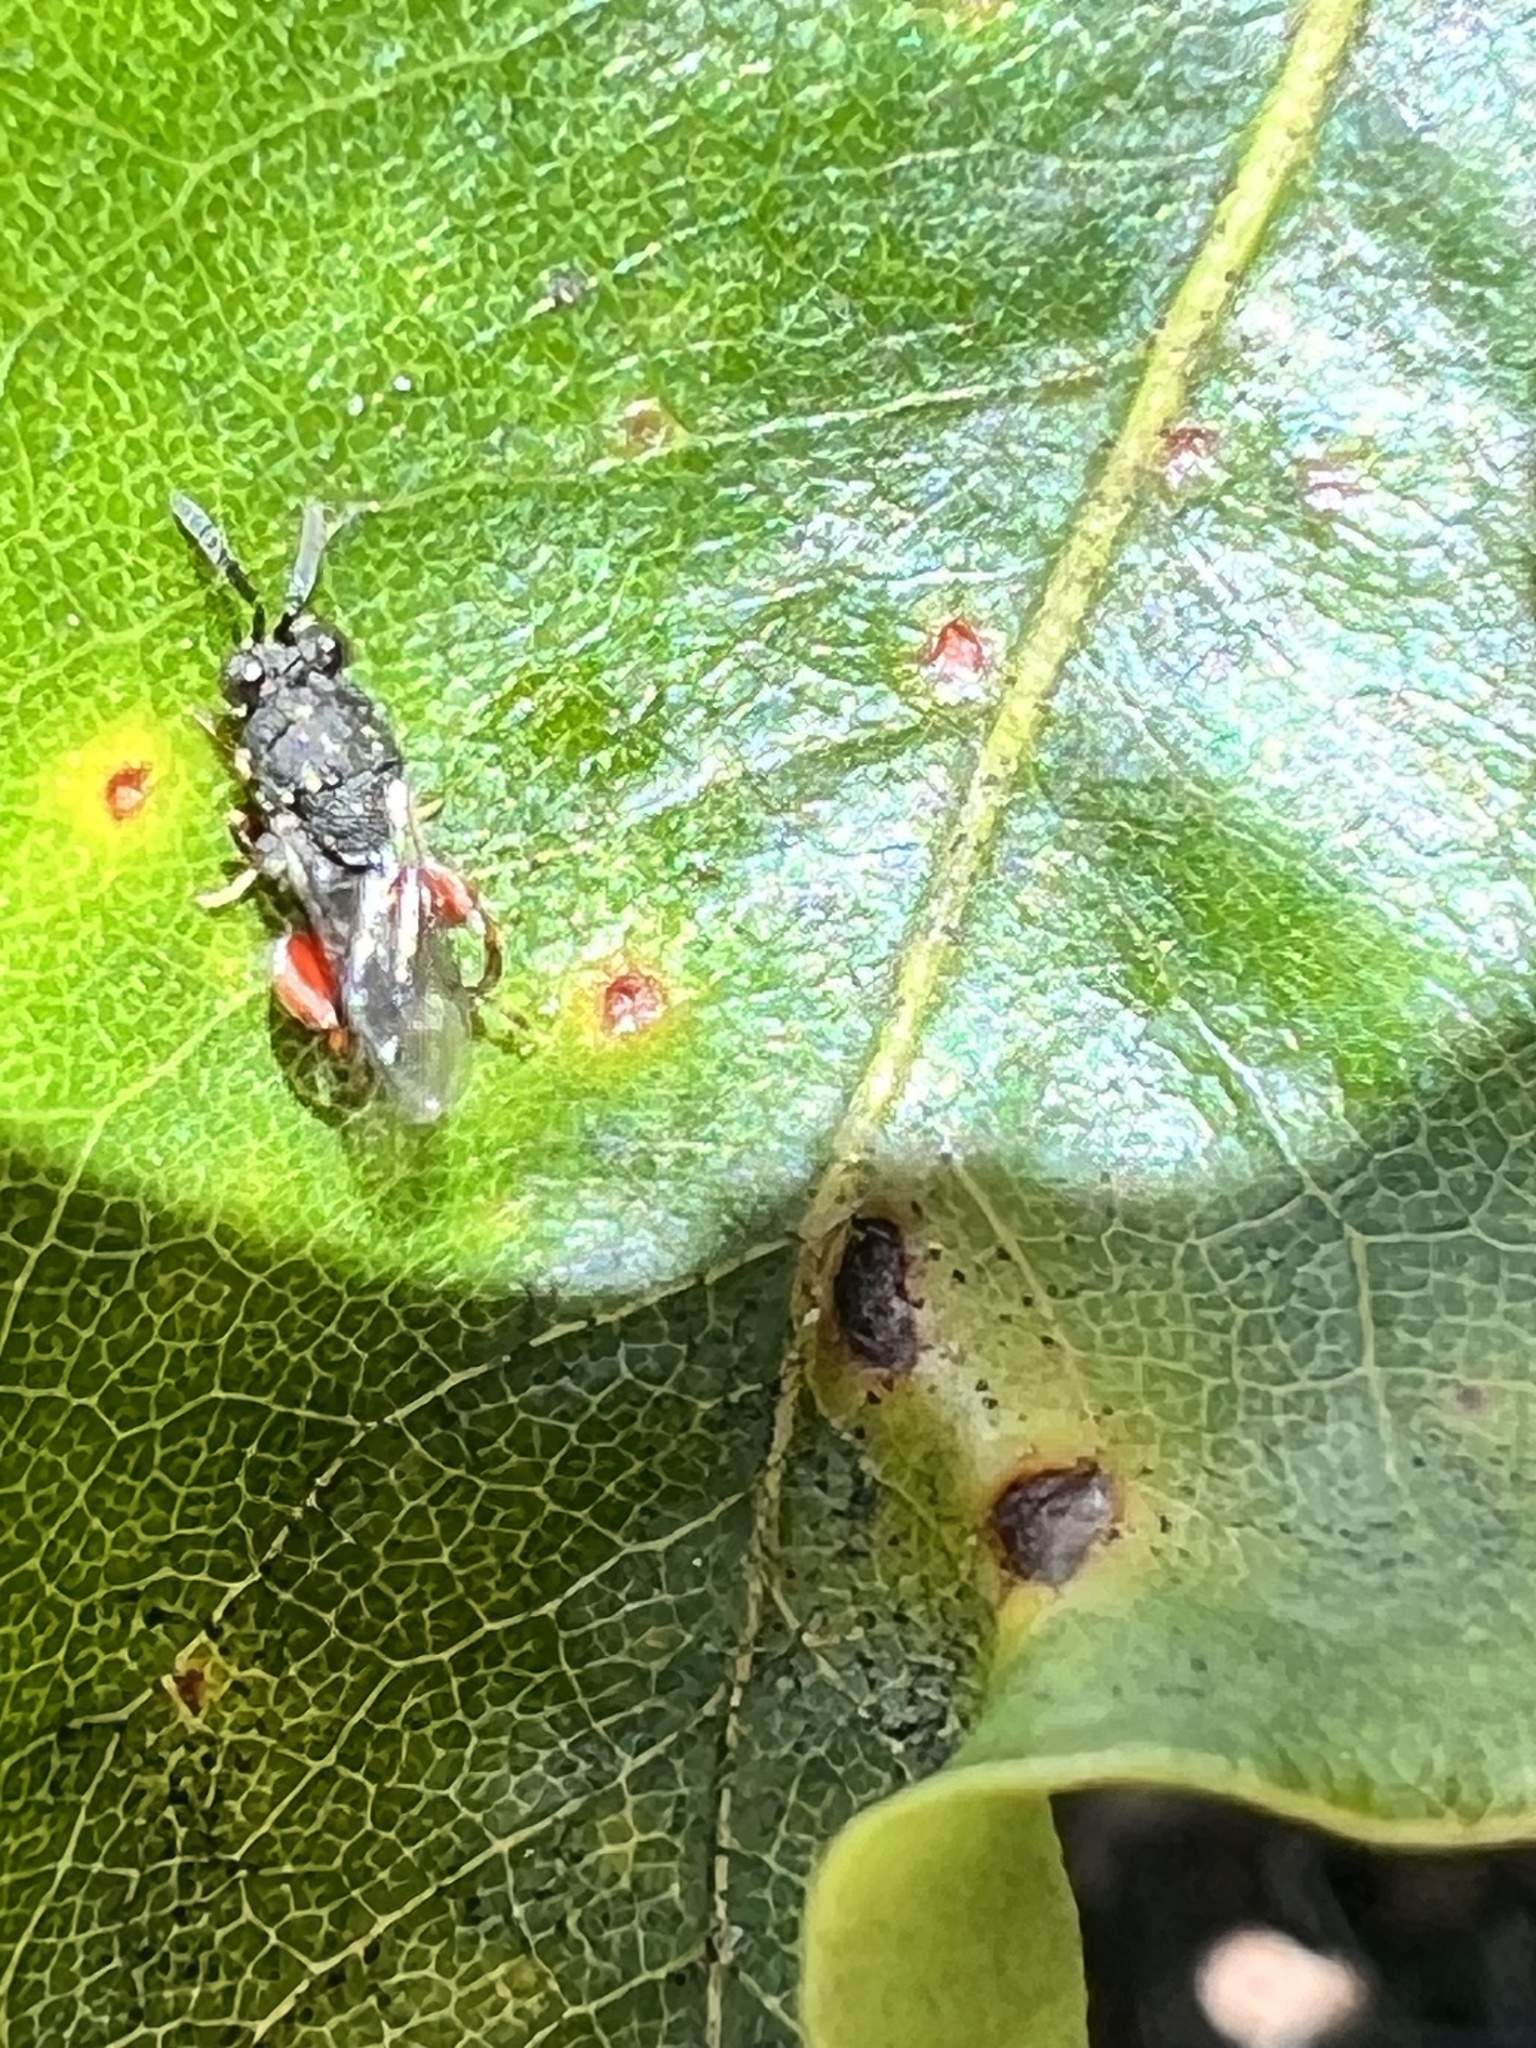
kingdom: Animalia
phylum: Arthropoda
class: Insecta
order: Hymenoptera
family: Chalcididae
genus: Brachymeria
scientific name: Brachymeria podagrica
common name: Chalcid wasp
